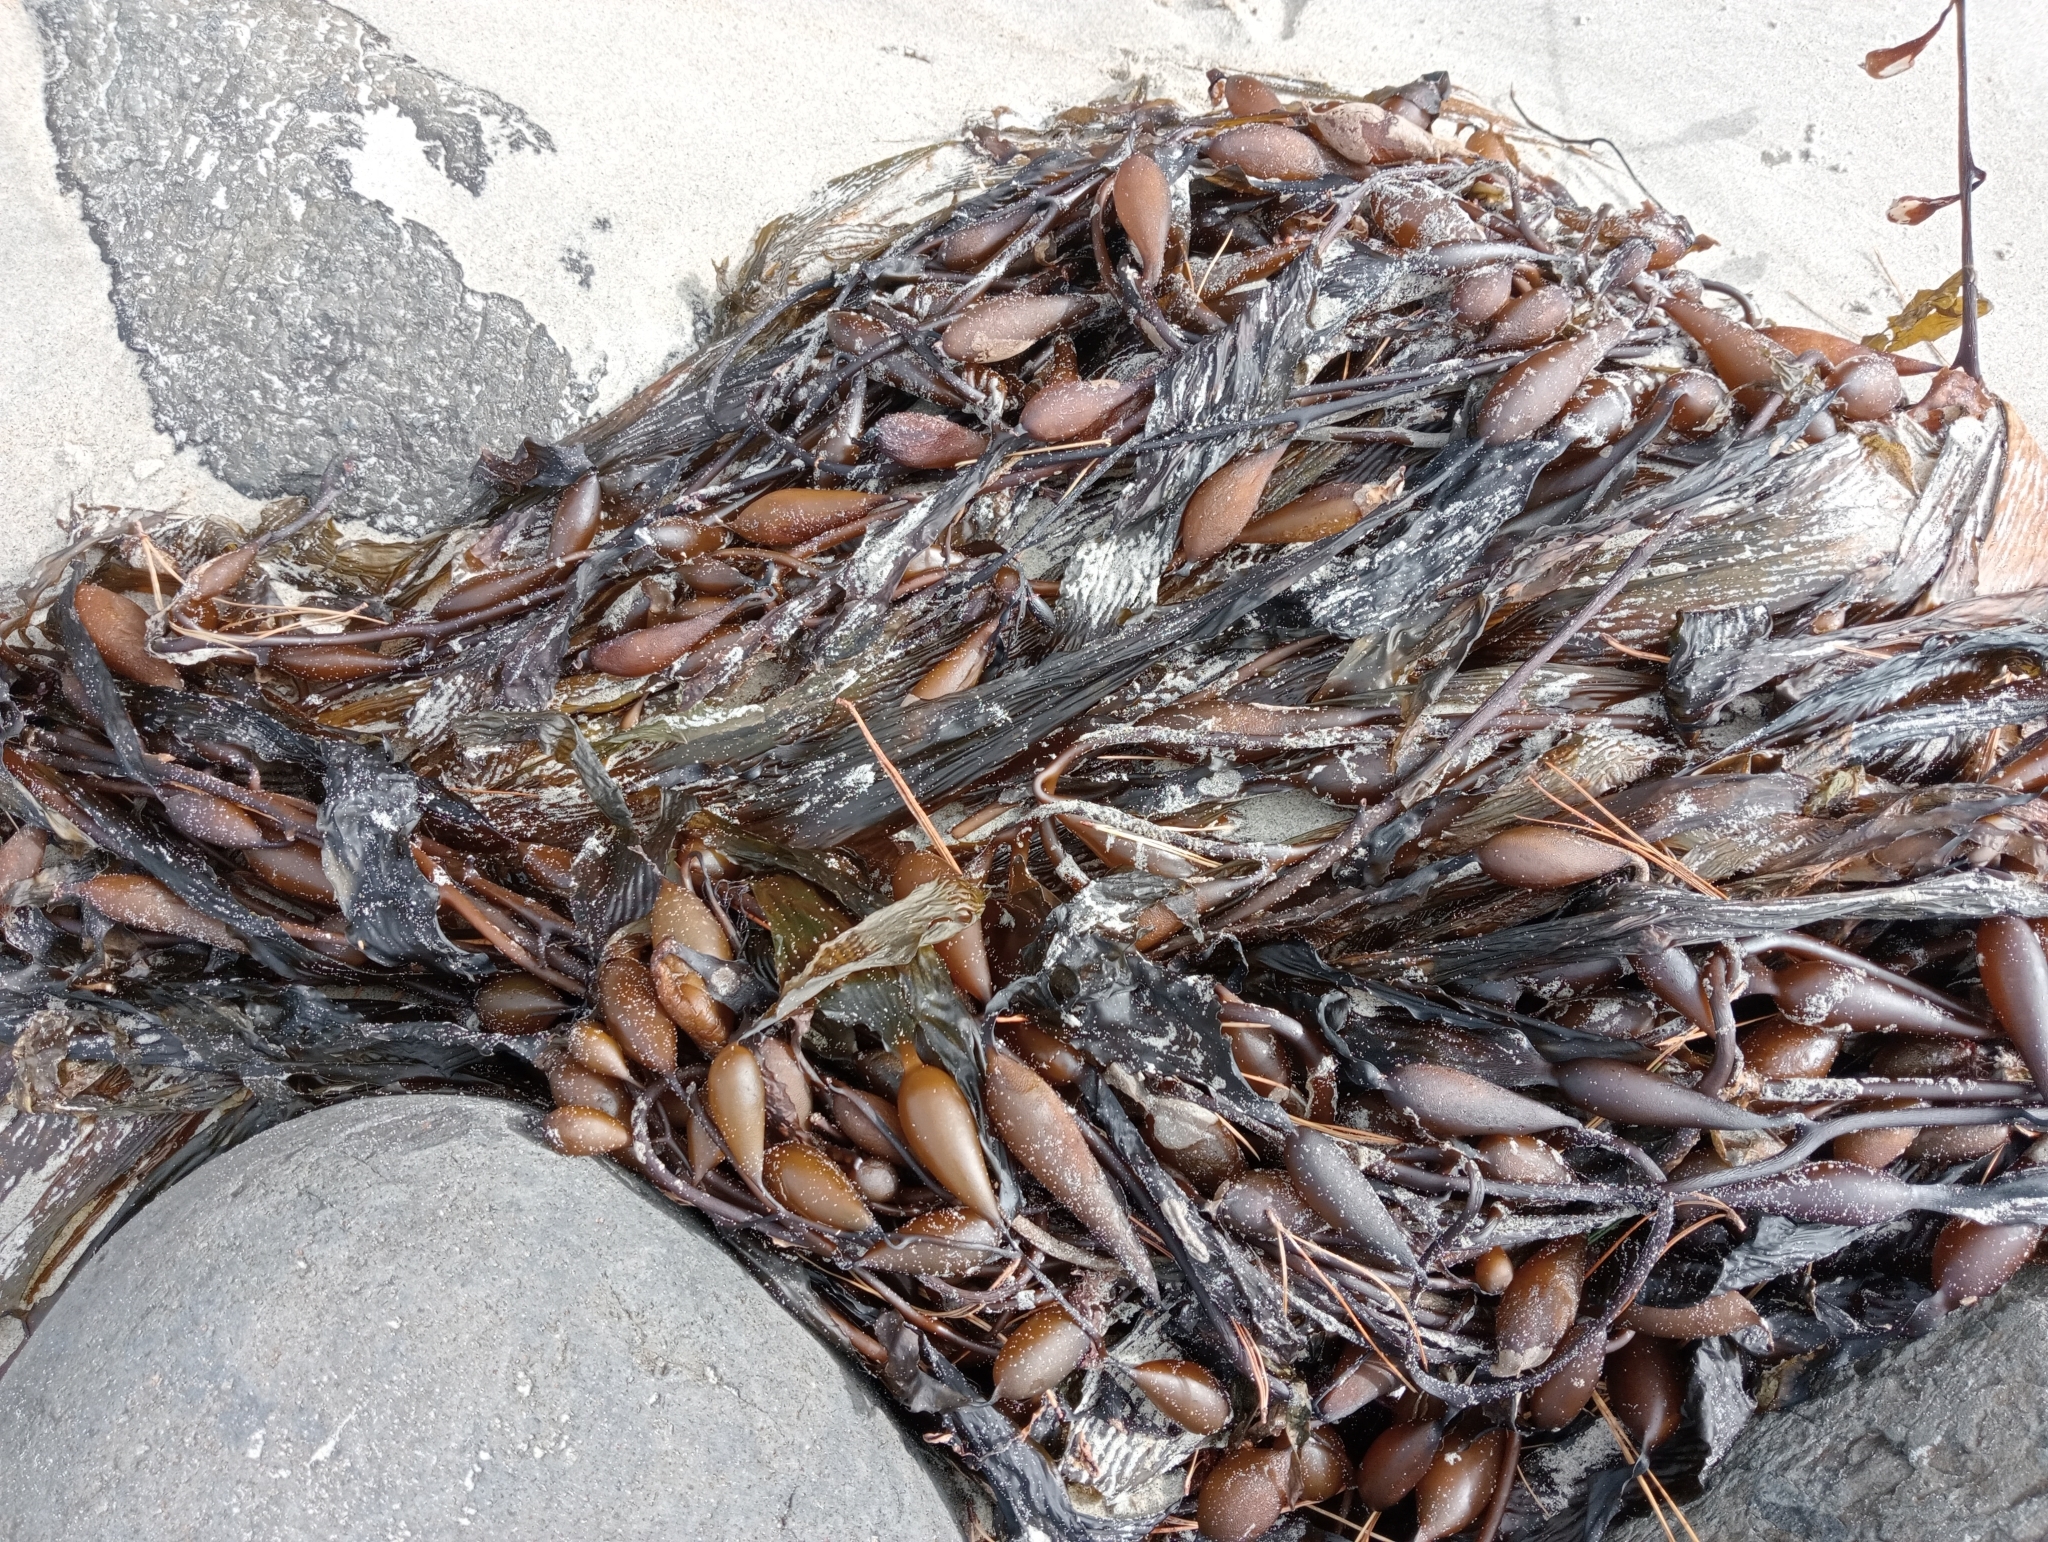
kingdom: Chromista
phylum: Ochrophyta
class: Phaeophyceae
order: Laminariales
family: Laminariaceae
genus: Macrocystis
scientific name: Macrocystis pyrifera
